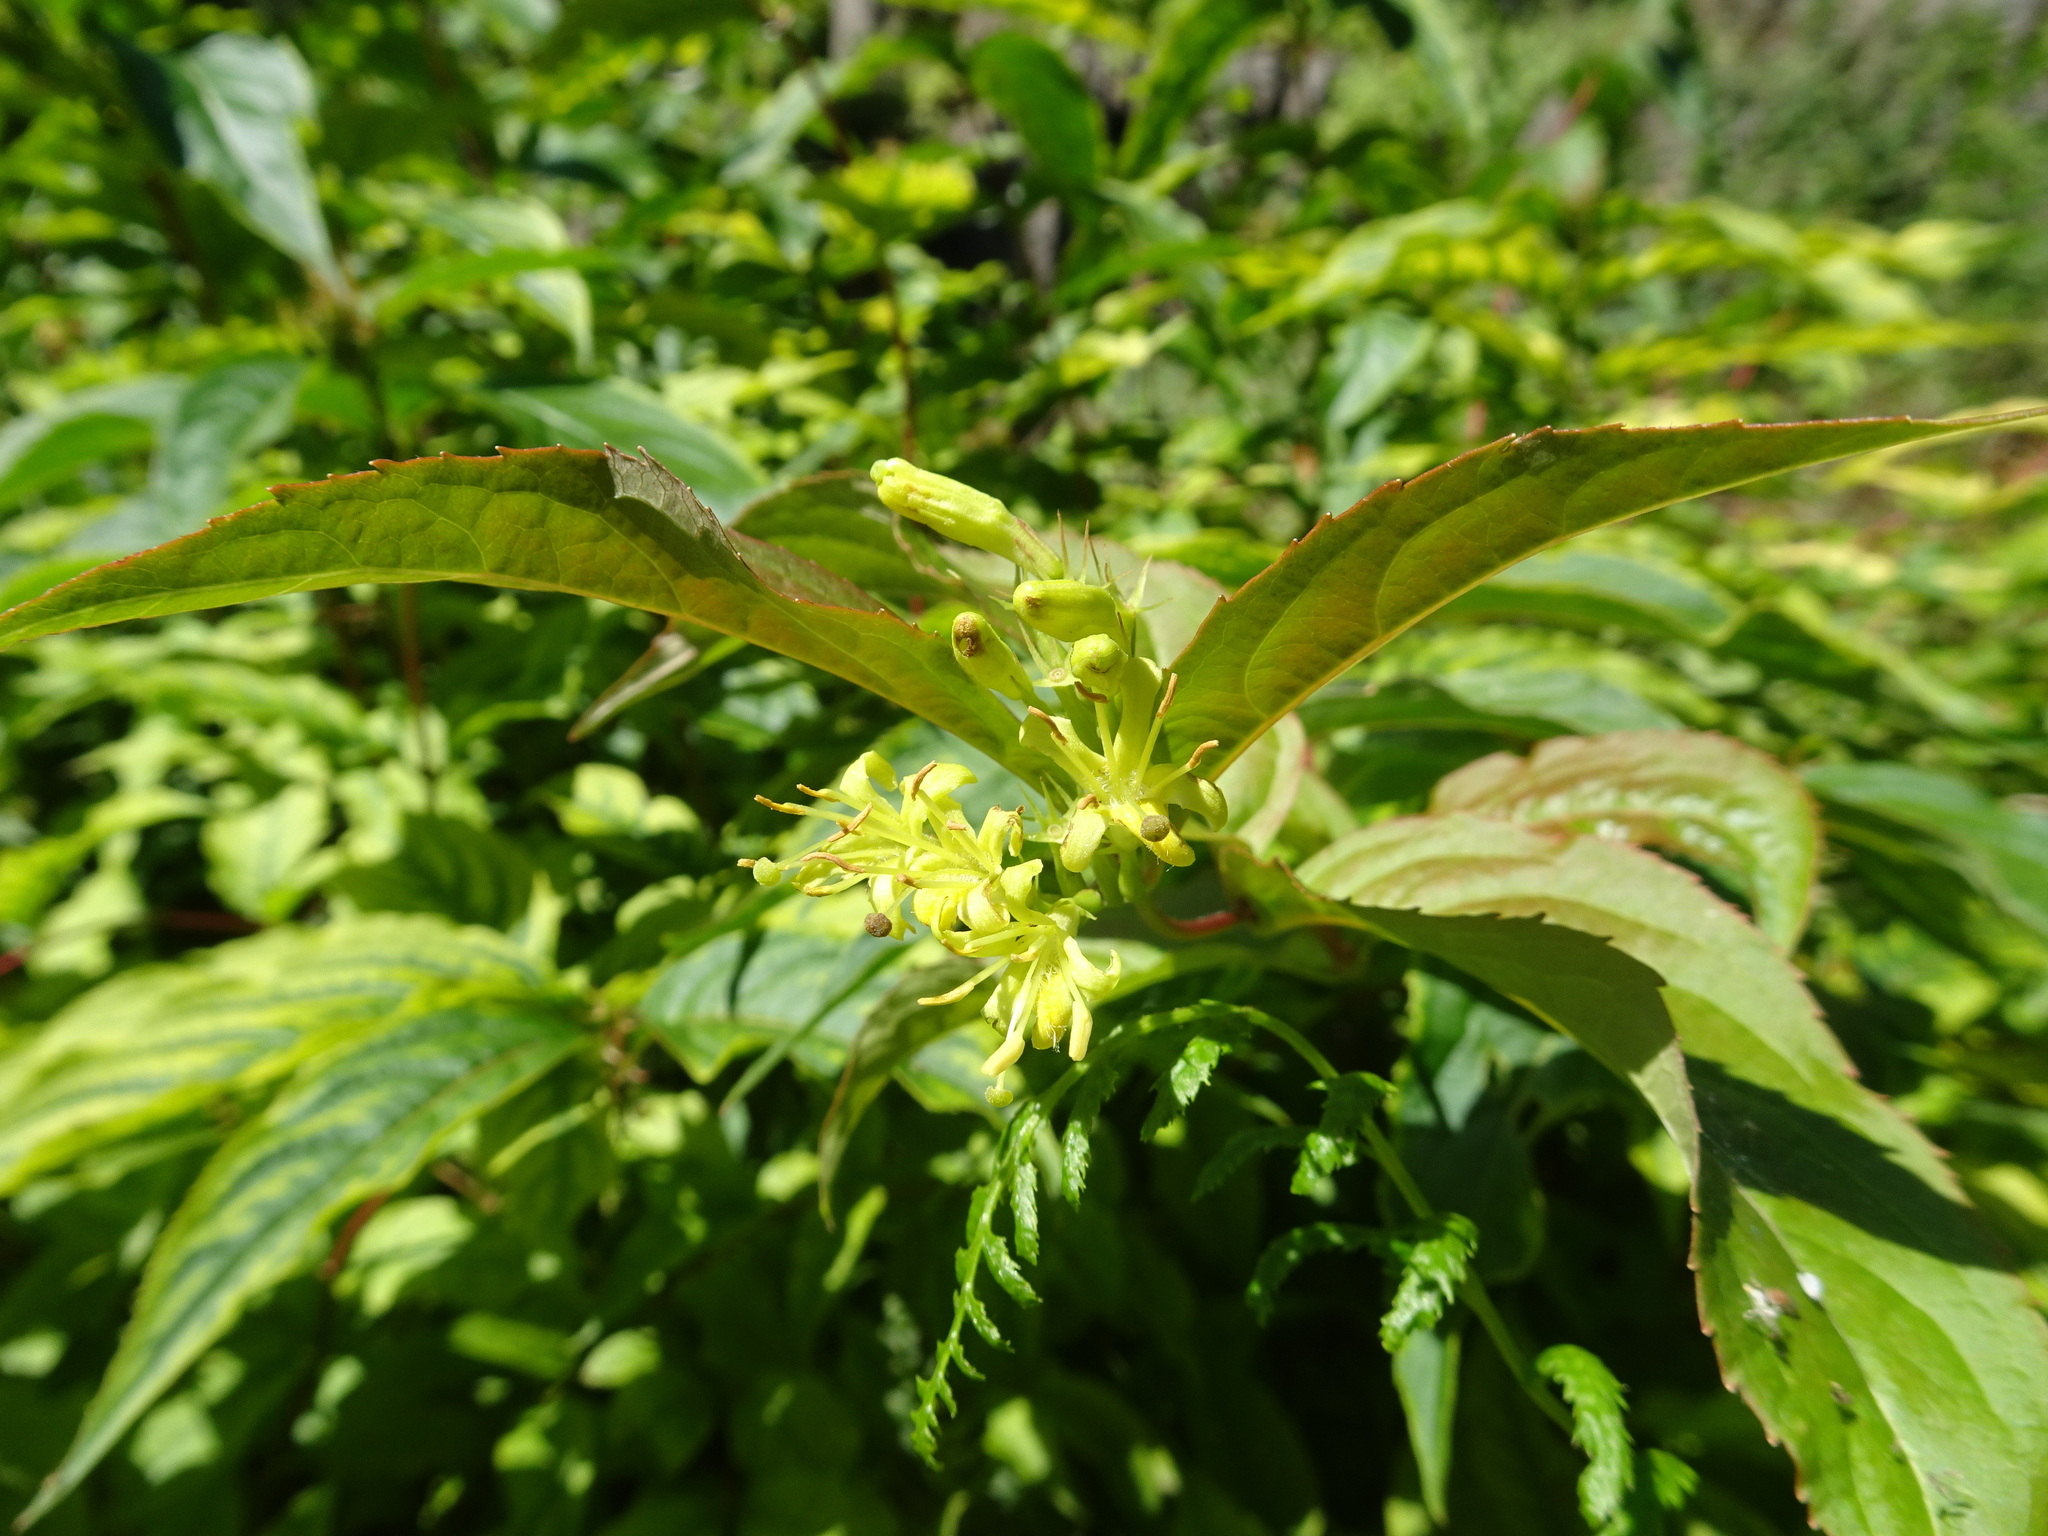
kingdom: Plantae
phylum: Tracheophyta
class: Magnoliopsida
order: Dipsacales
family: Caprifoliaceae
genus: Diervilla
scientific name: Diervilla lonicera
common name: Bush-honeysuckle
